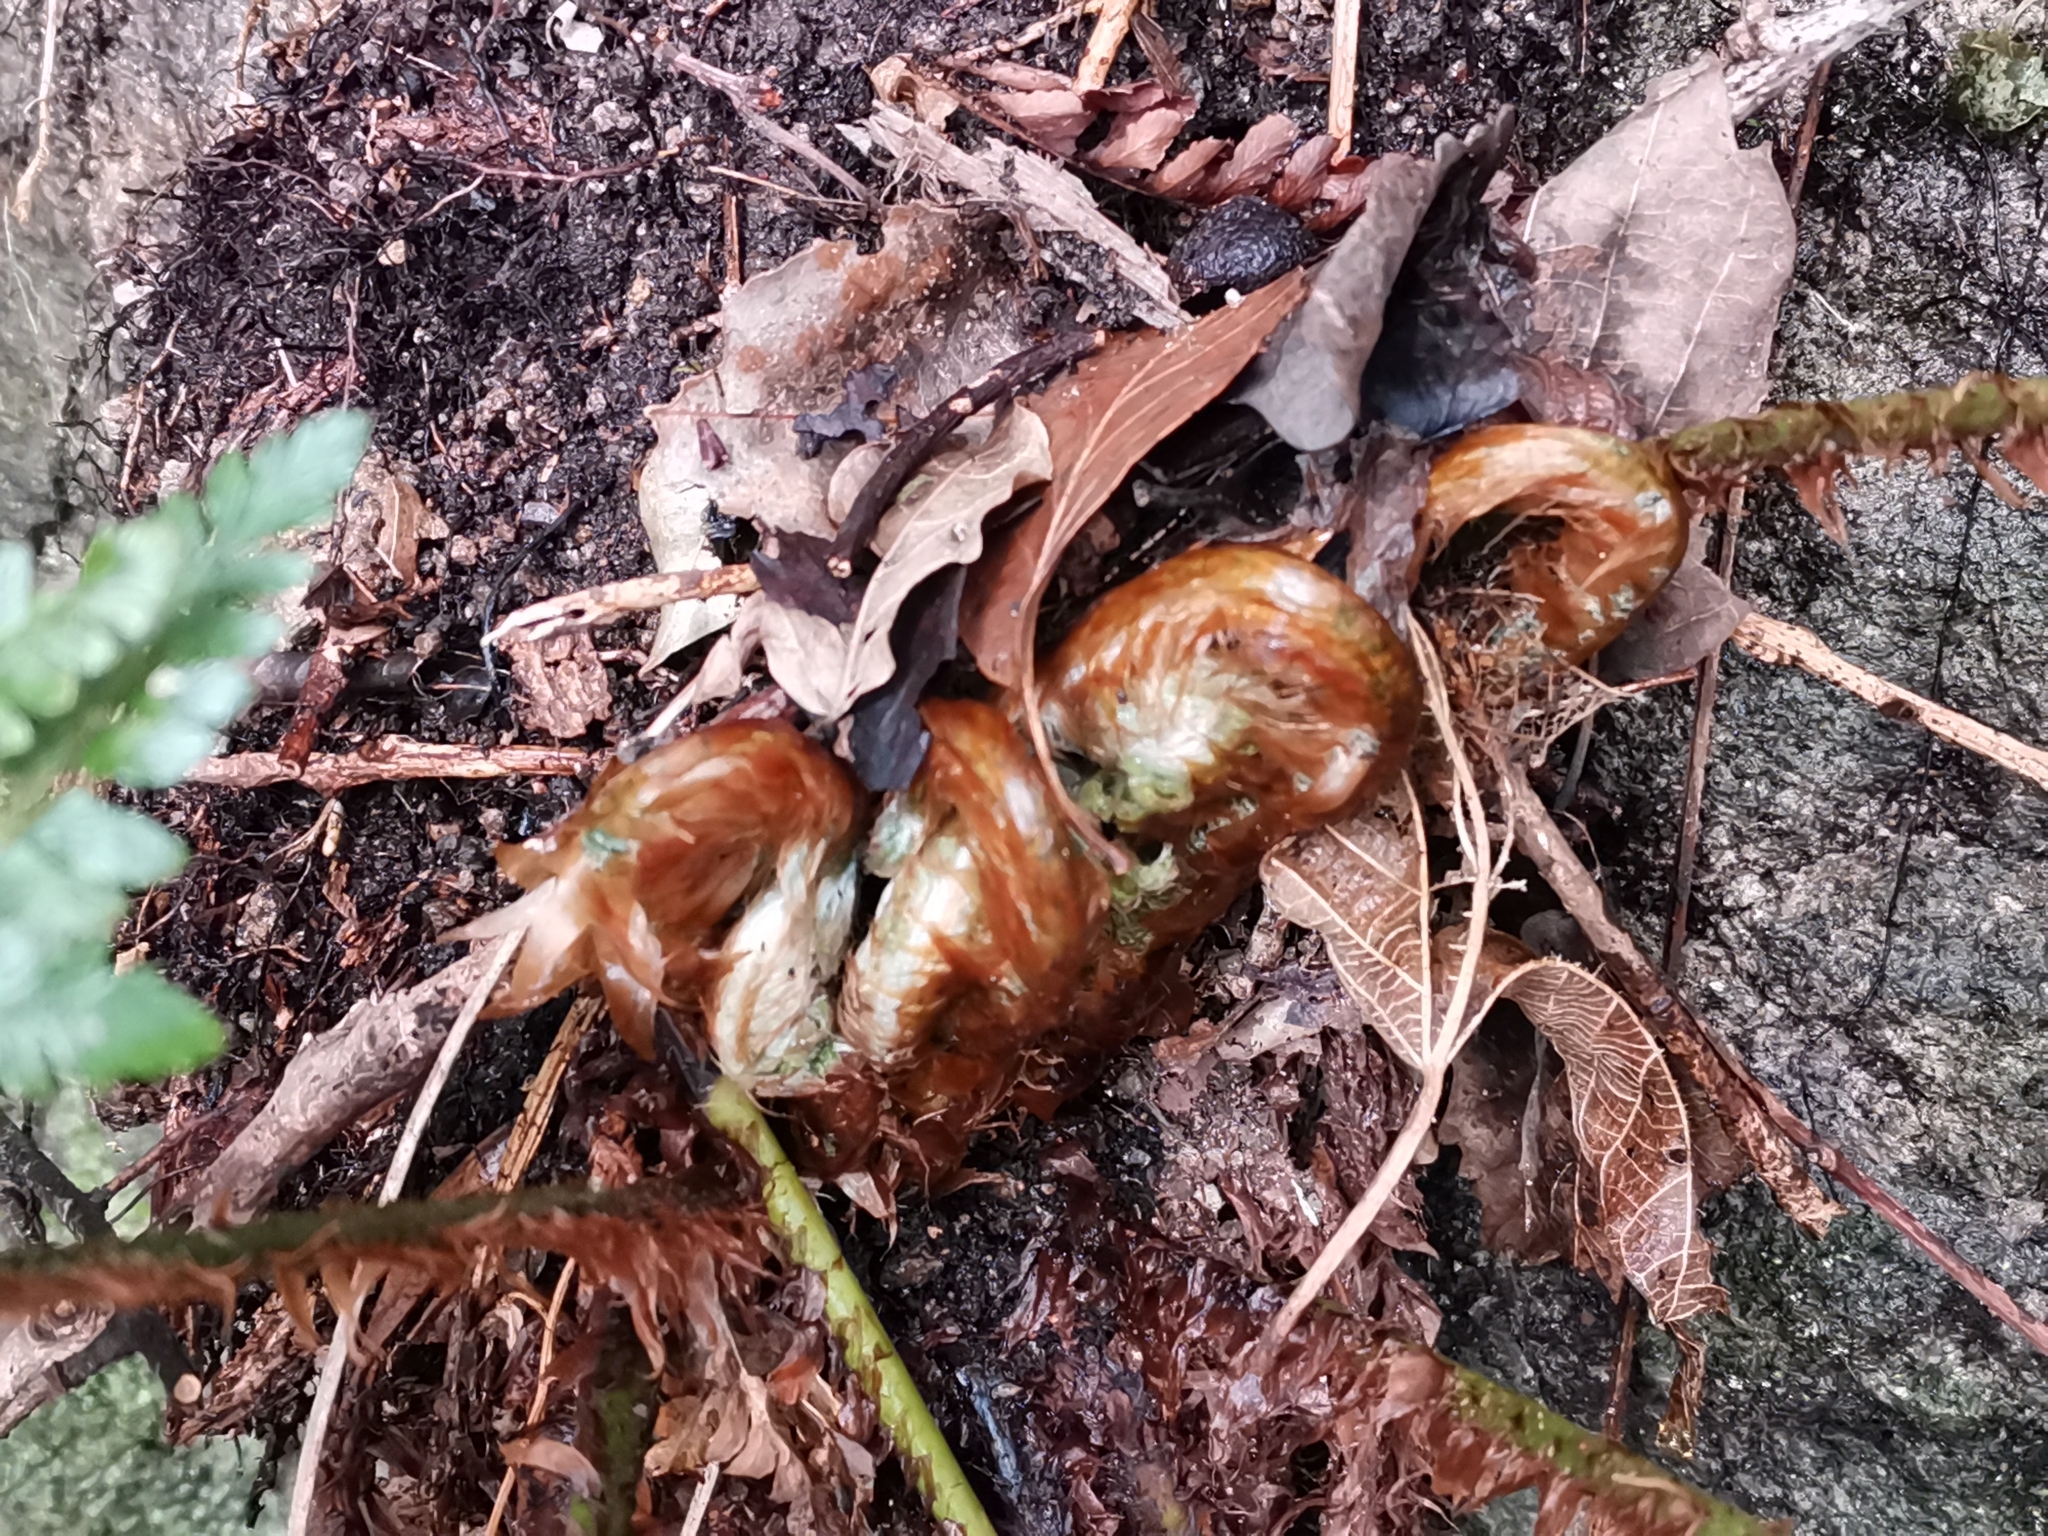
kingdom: Plantae
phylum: Tracheophyta
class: Polypodiopsida
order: Polypodiales
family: Dryopteridaceae
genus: Polystichum
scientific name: Polystichum luctuosum
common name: Korean rockfern
